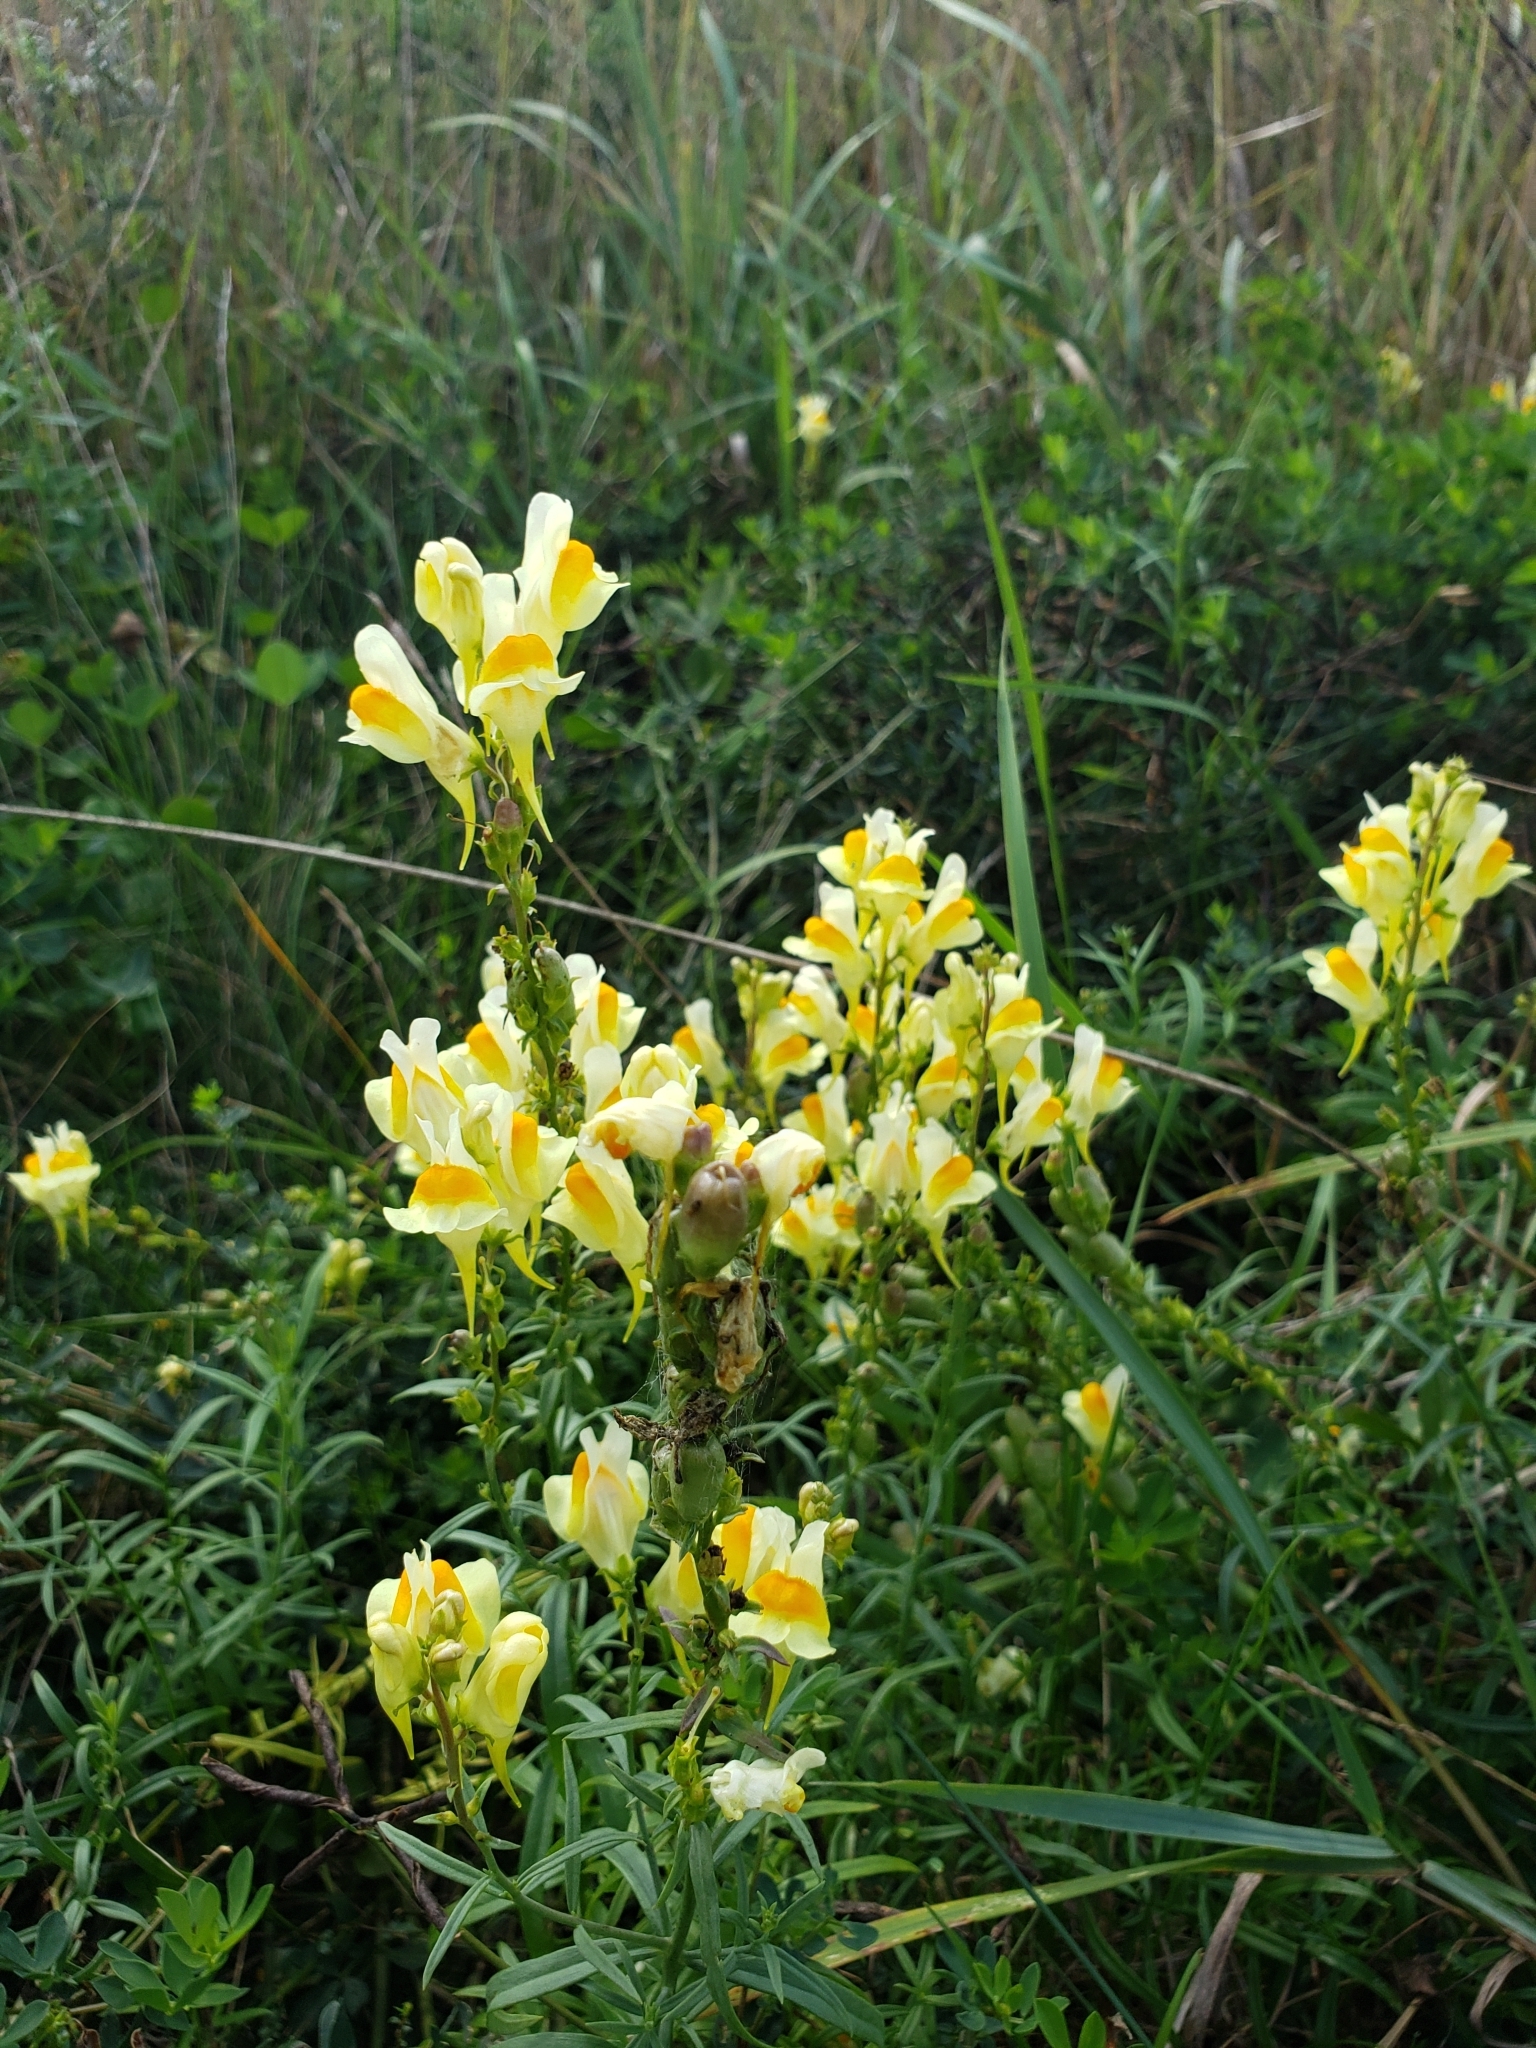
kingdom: Plantae
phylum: Tracheophyta
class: Magnoliopsida
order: Lamiales
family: Plantaginaceae
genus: Linaria
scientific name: Linaria vulgaris
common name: Butter and eggs
